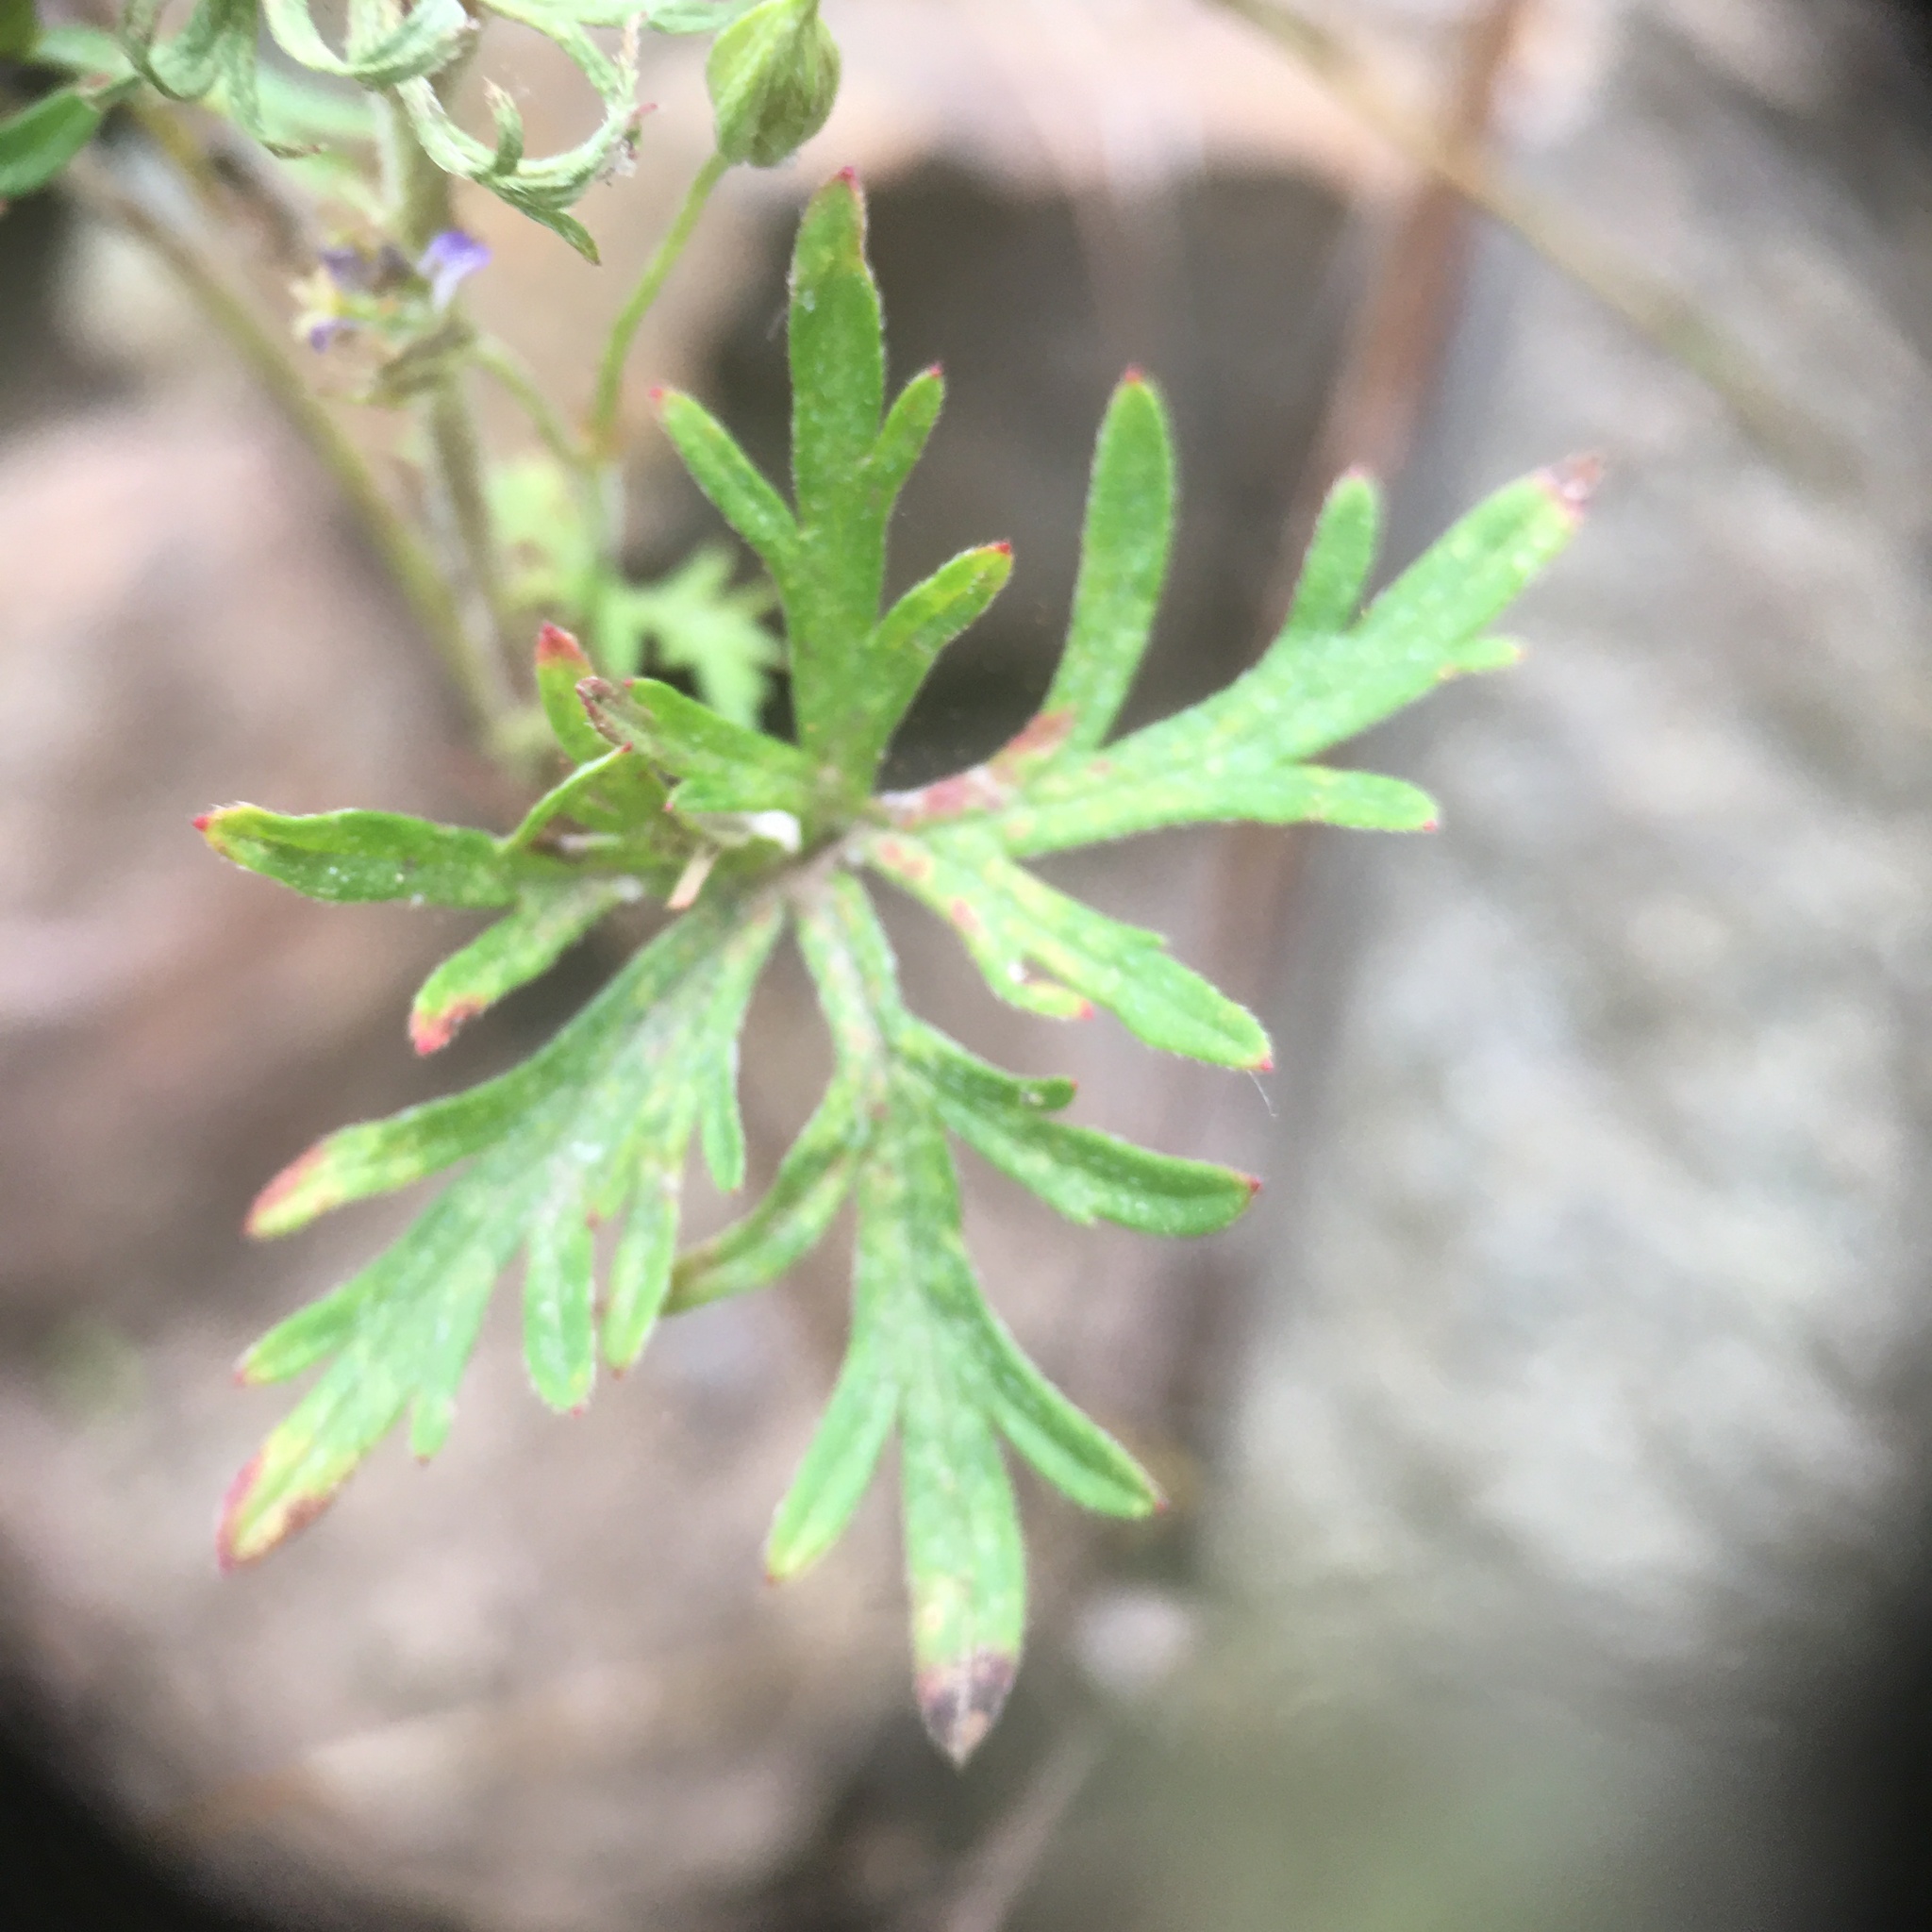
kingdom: Plantae
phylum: Tracheophyta
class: Magnoliopsida
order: Geraniales
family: Geraniaceae
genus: Geranium
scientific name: Geranium columbinum
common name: Long-stalked crane's-bill
